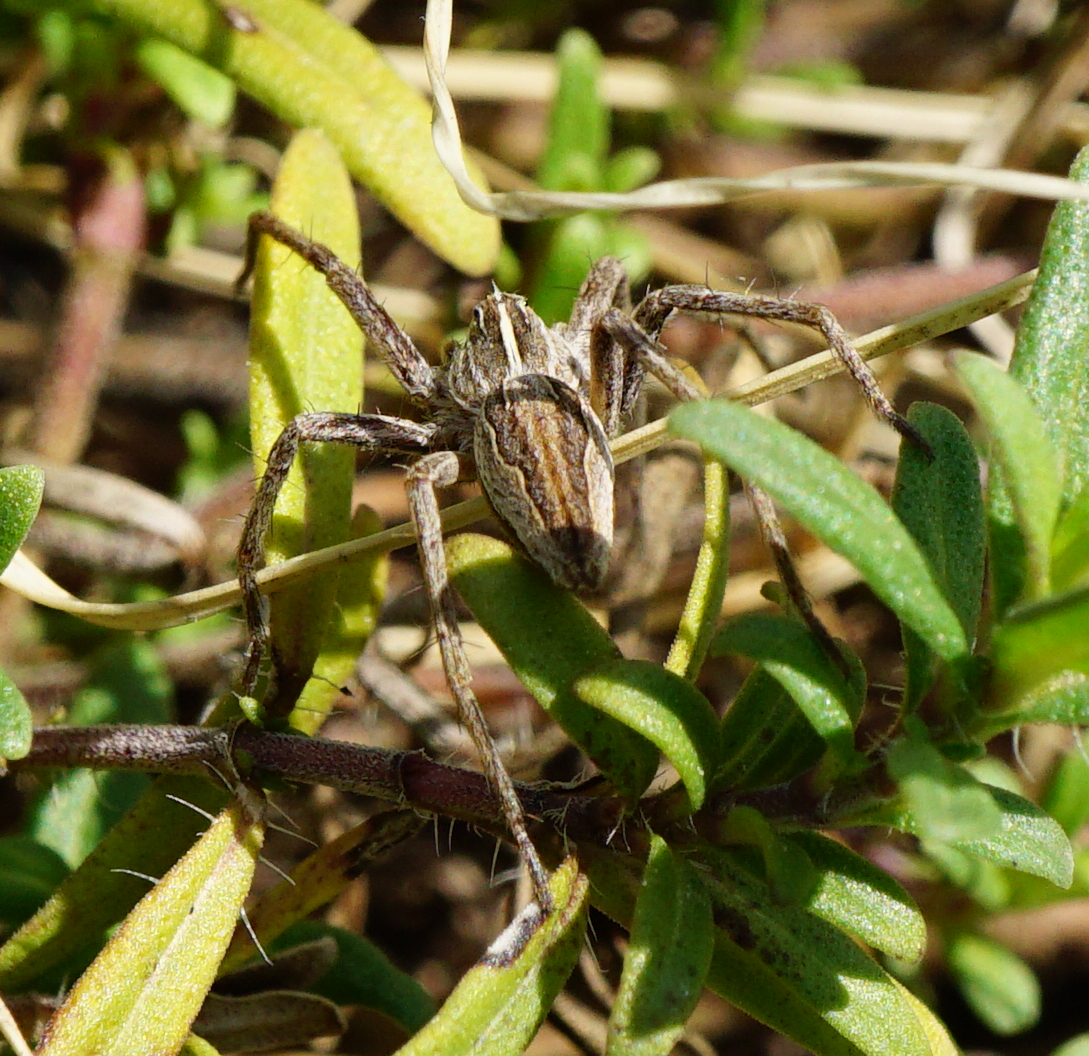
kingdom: Animalia
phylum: Arthropoda
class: Arachnida
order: Araneae
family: Pisauridae
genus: Pisaura
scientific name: Pisaura mirabilis
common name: Tent spider
